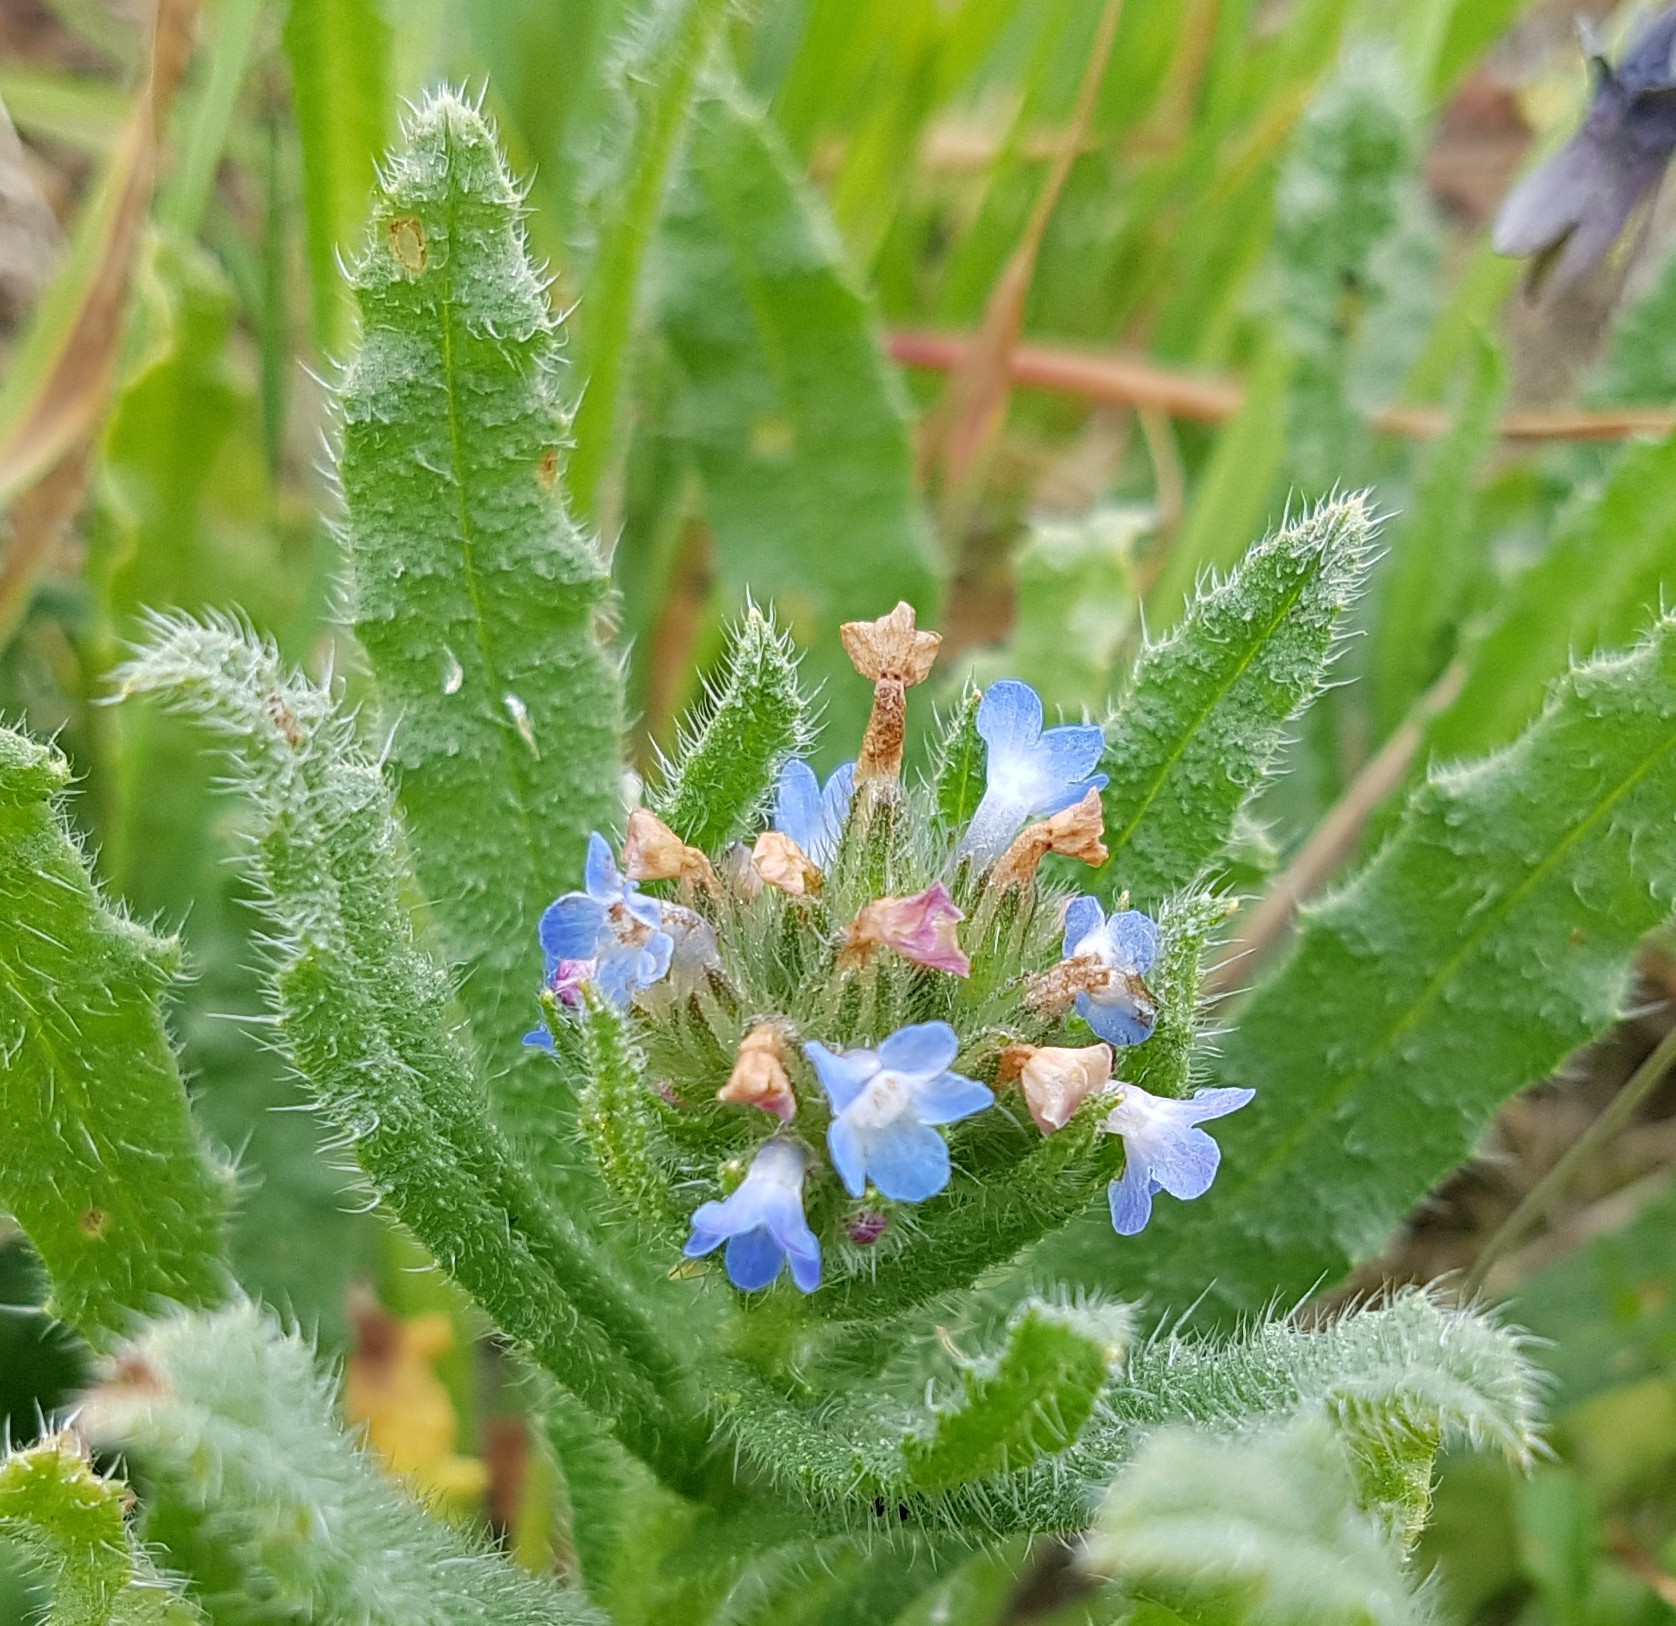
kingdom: Plantae
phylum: Tracheophyta
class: Magnoliopsida
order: Boraginales
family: Boraginaceae
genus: Lycopsis
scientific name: Lycopsis arvensis
